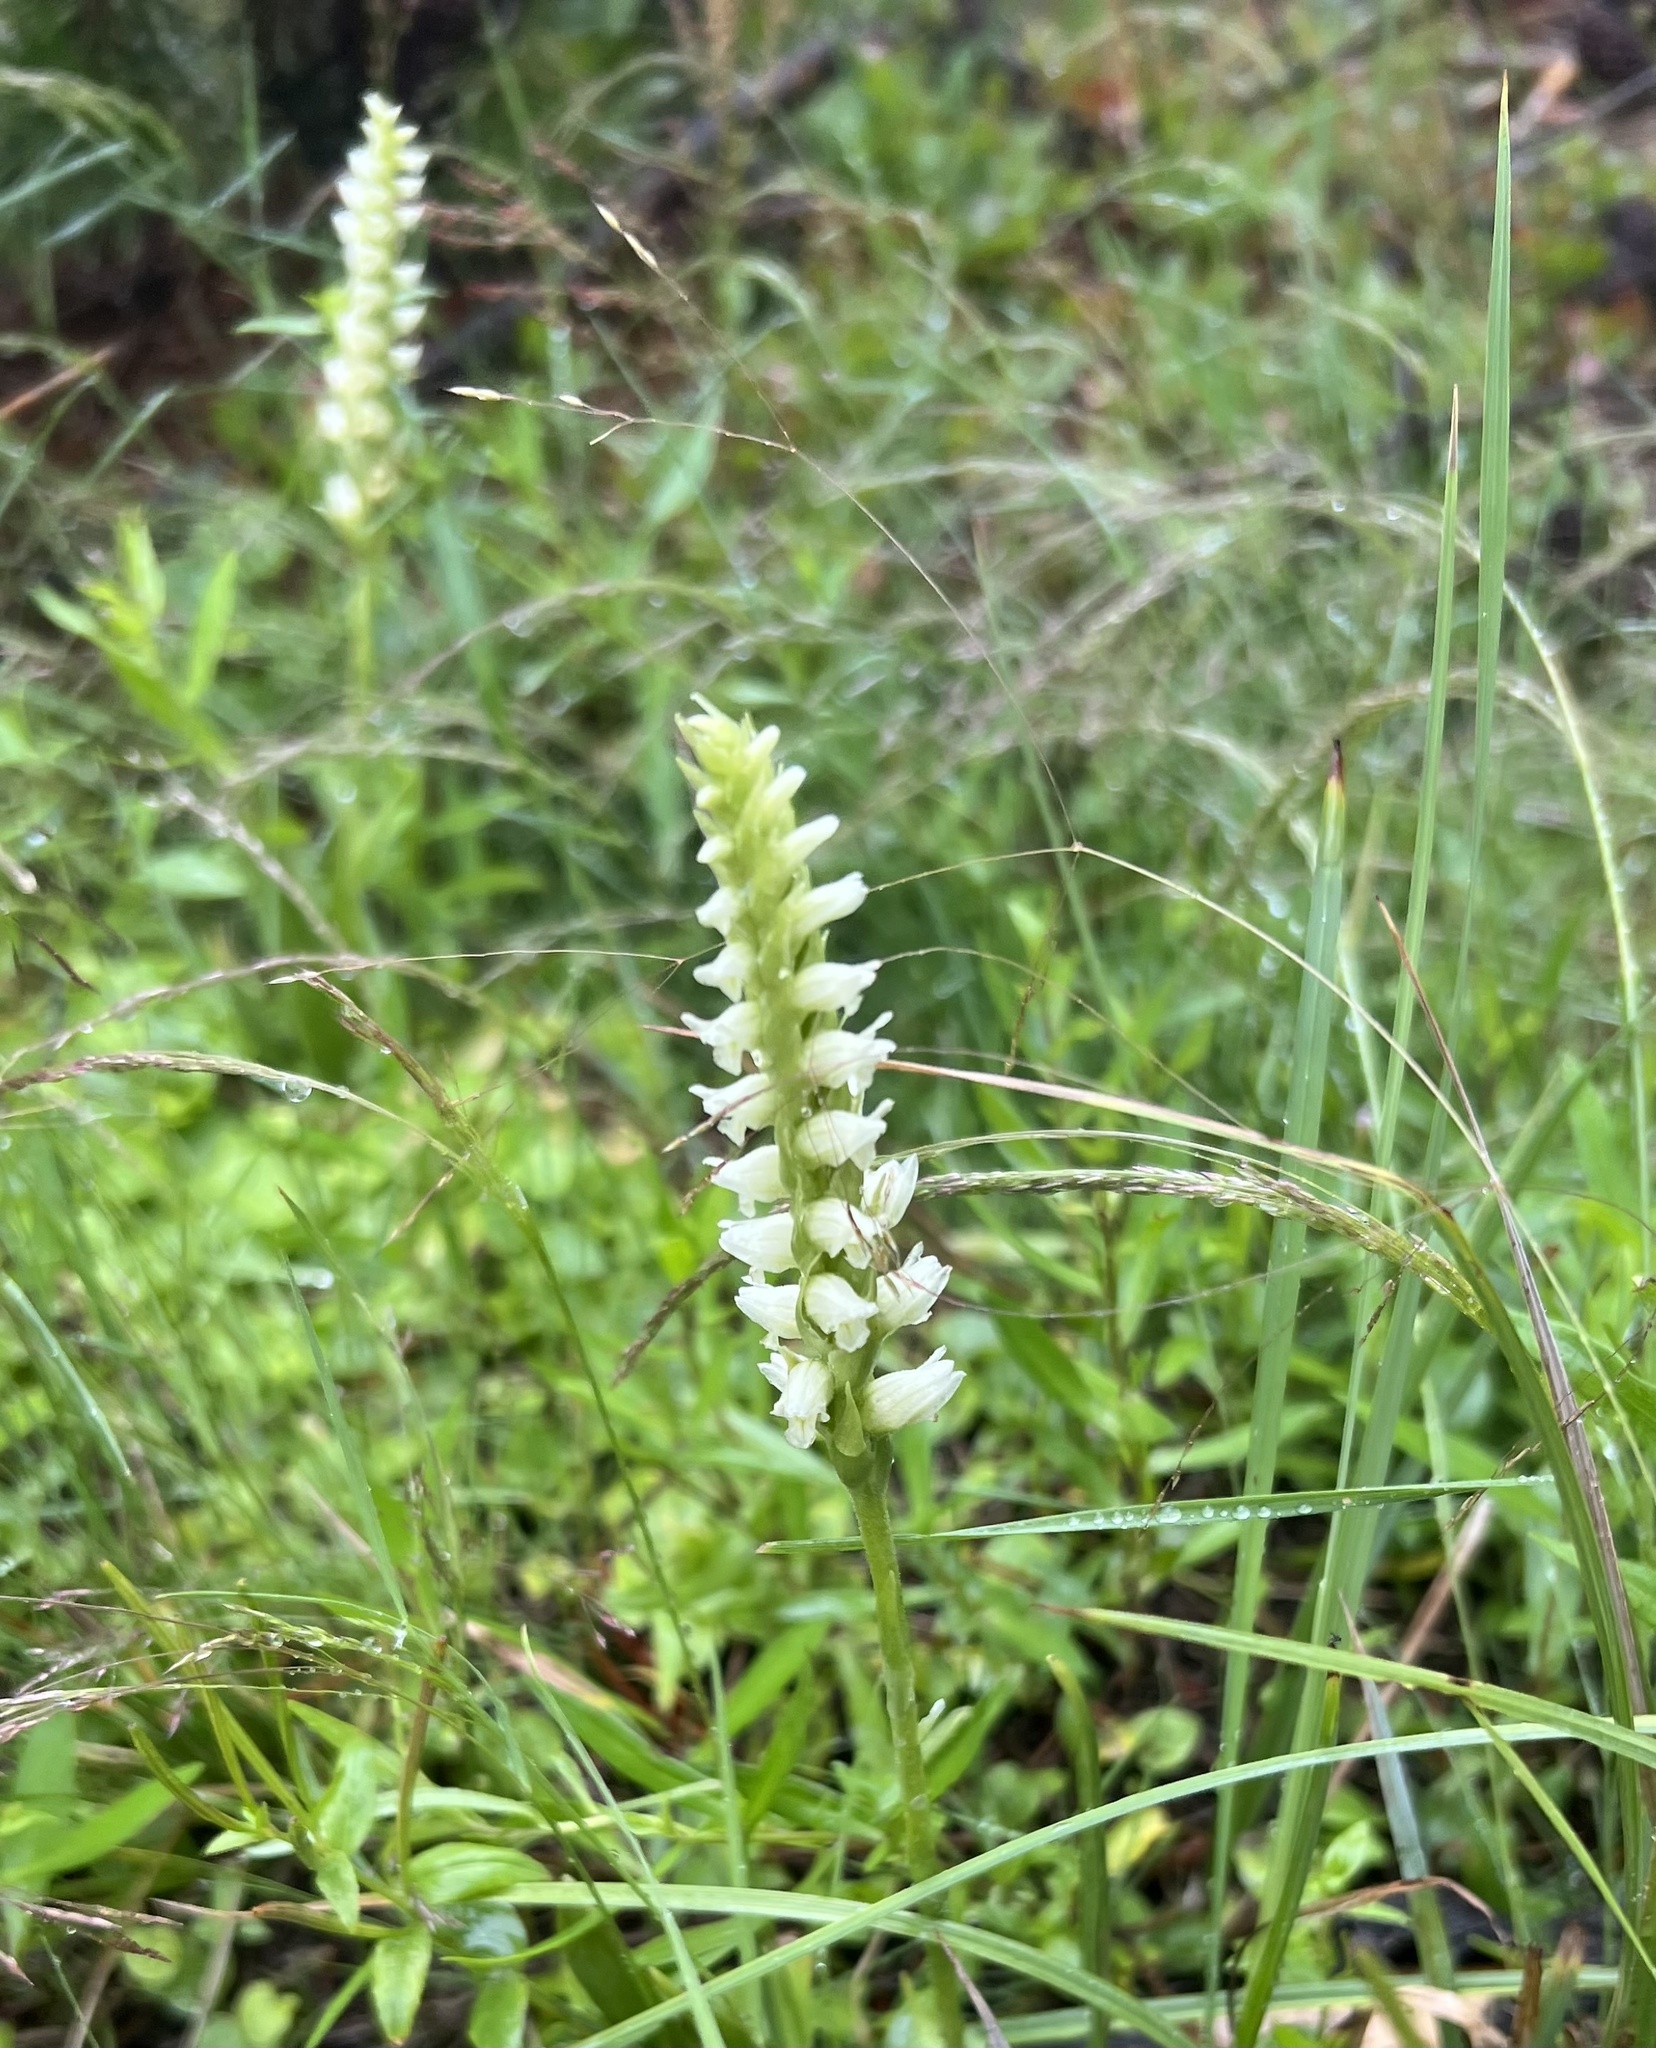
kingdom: Plantae
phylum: Tracheophyta
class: Liliopsida
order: Asparagales
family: Orchidaceae
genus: Spiranthes
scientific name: Spiranthes romanzoffiana
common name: Irish lady's-tresses
